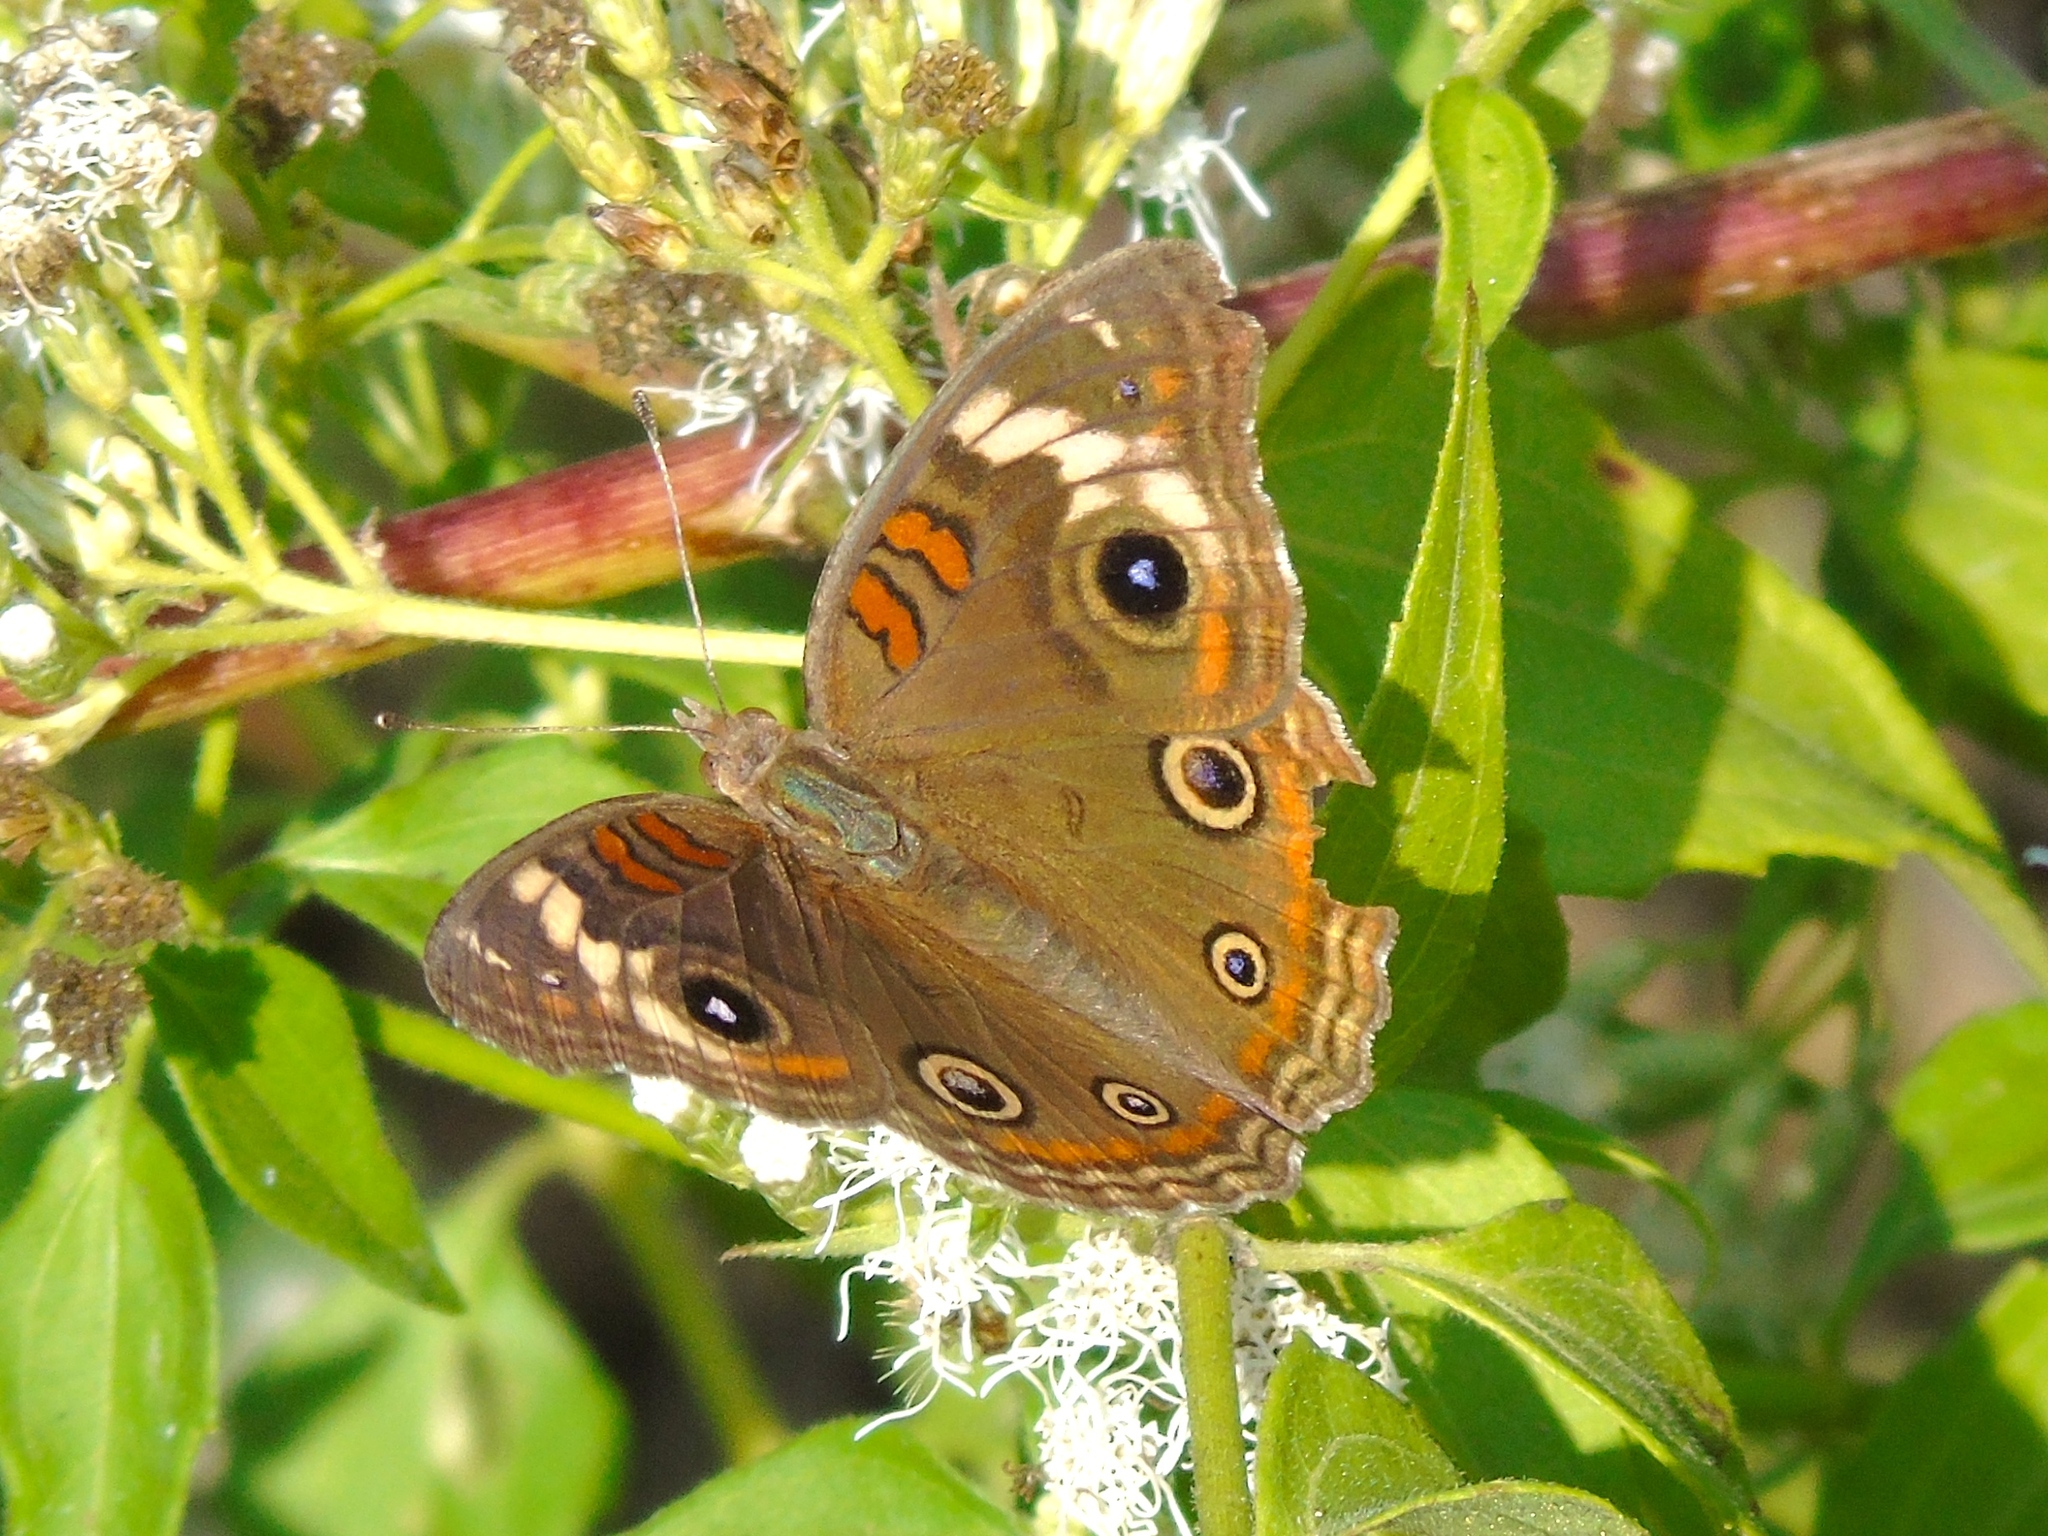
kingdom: Animalia
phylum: Arthropoda
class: Insecta
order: Lepidoptera
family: Nymphalidae
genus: Junonia
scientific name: Junonia coenia
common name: Common buckeye
